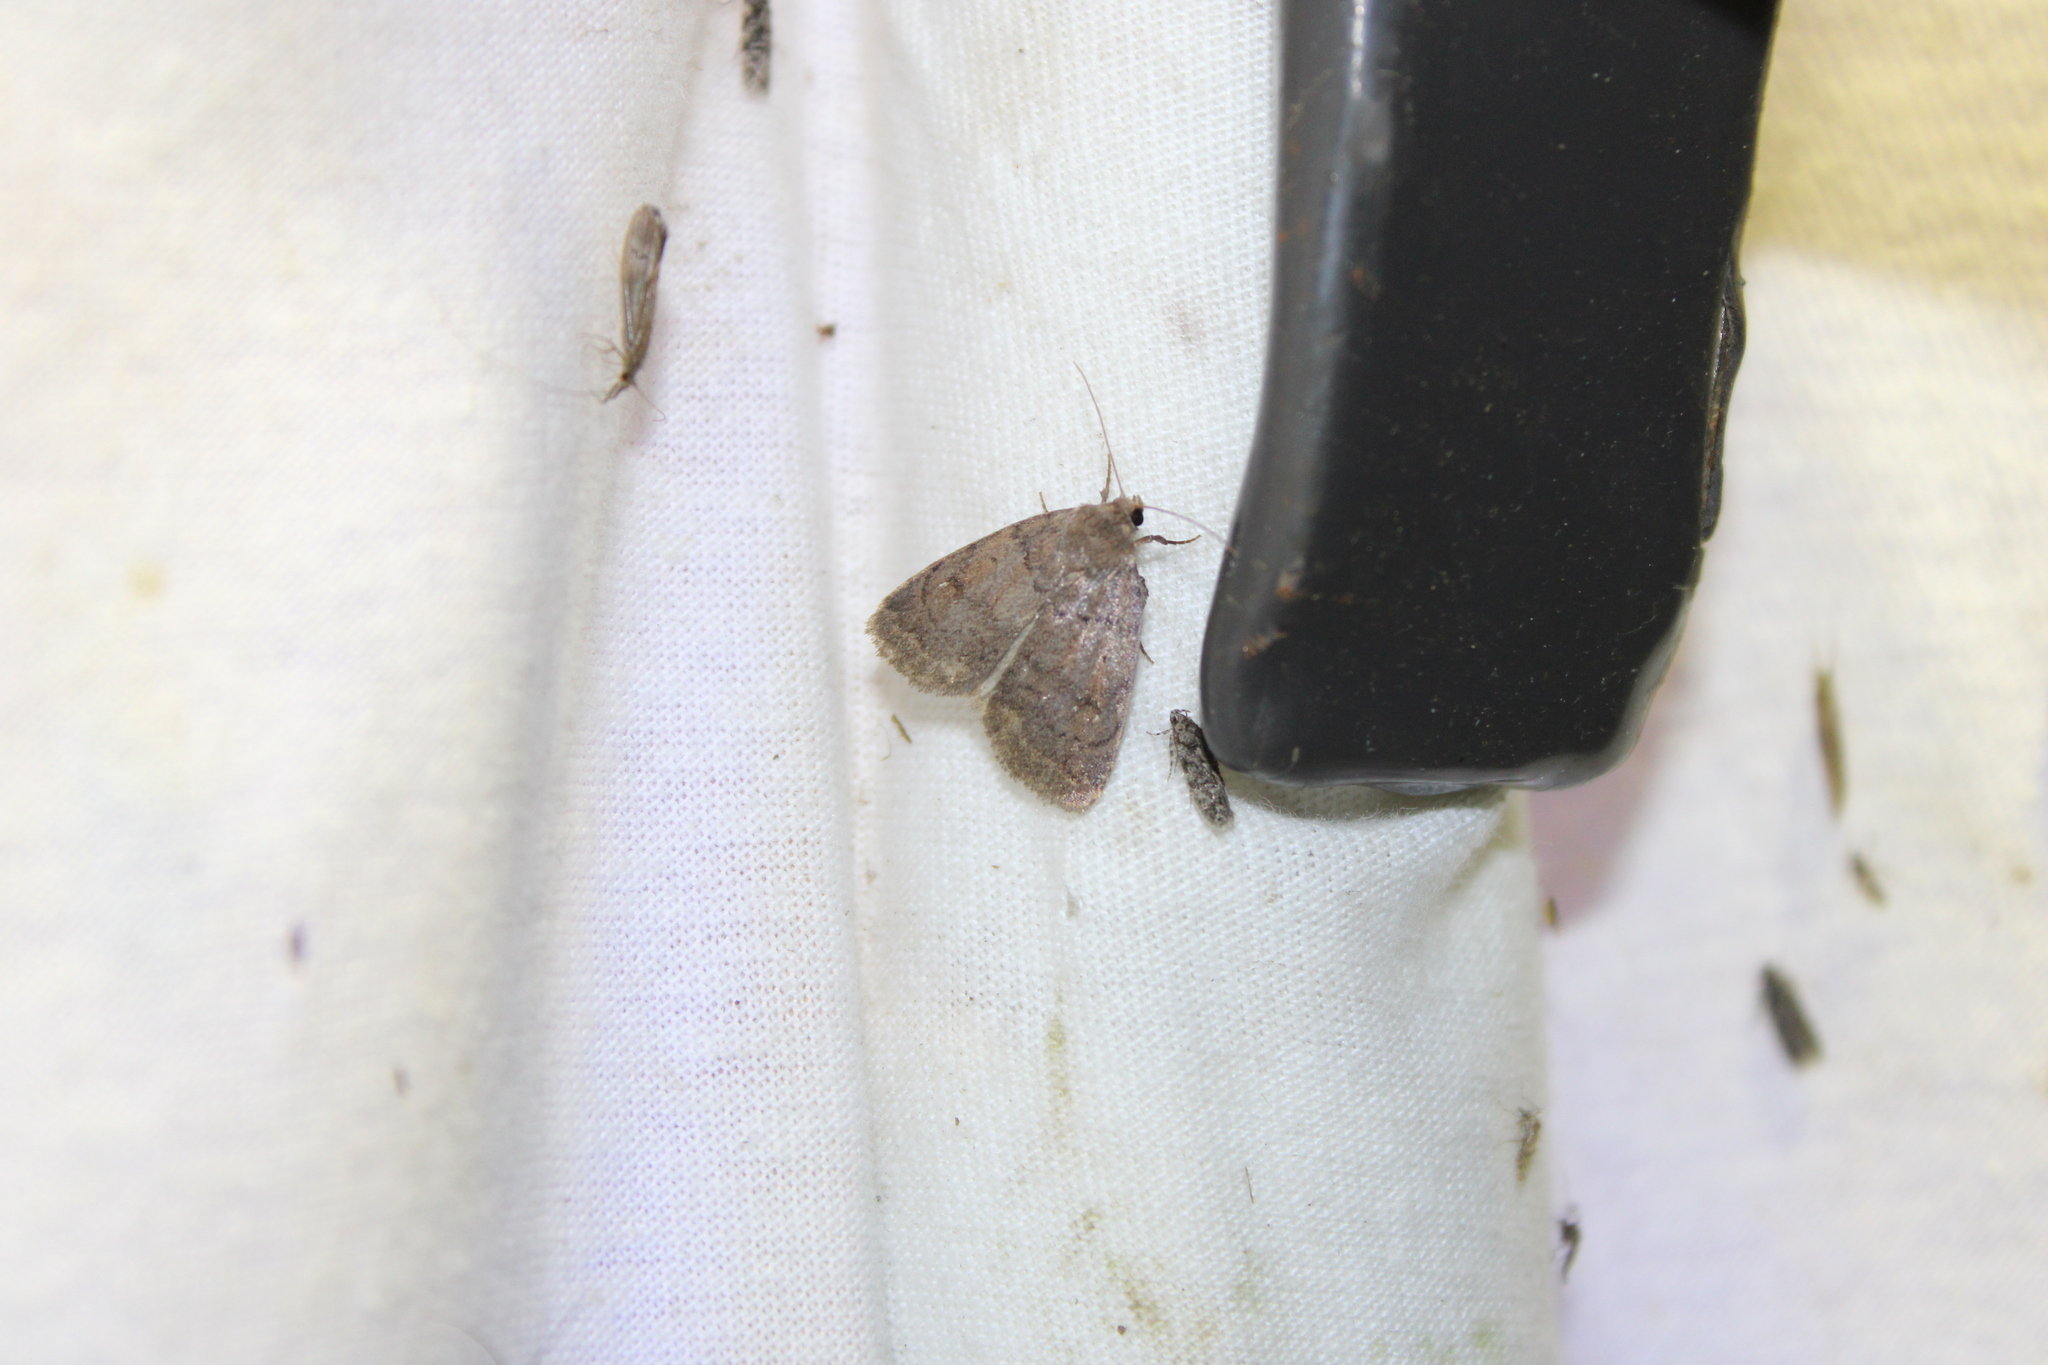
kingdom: Animalia
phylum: Arthropoda
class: Insecta
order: Lepidoptera
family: Noctuidae
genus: Athetis
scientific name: Athetis tarda
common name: Slowpoke moth
